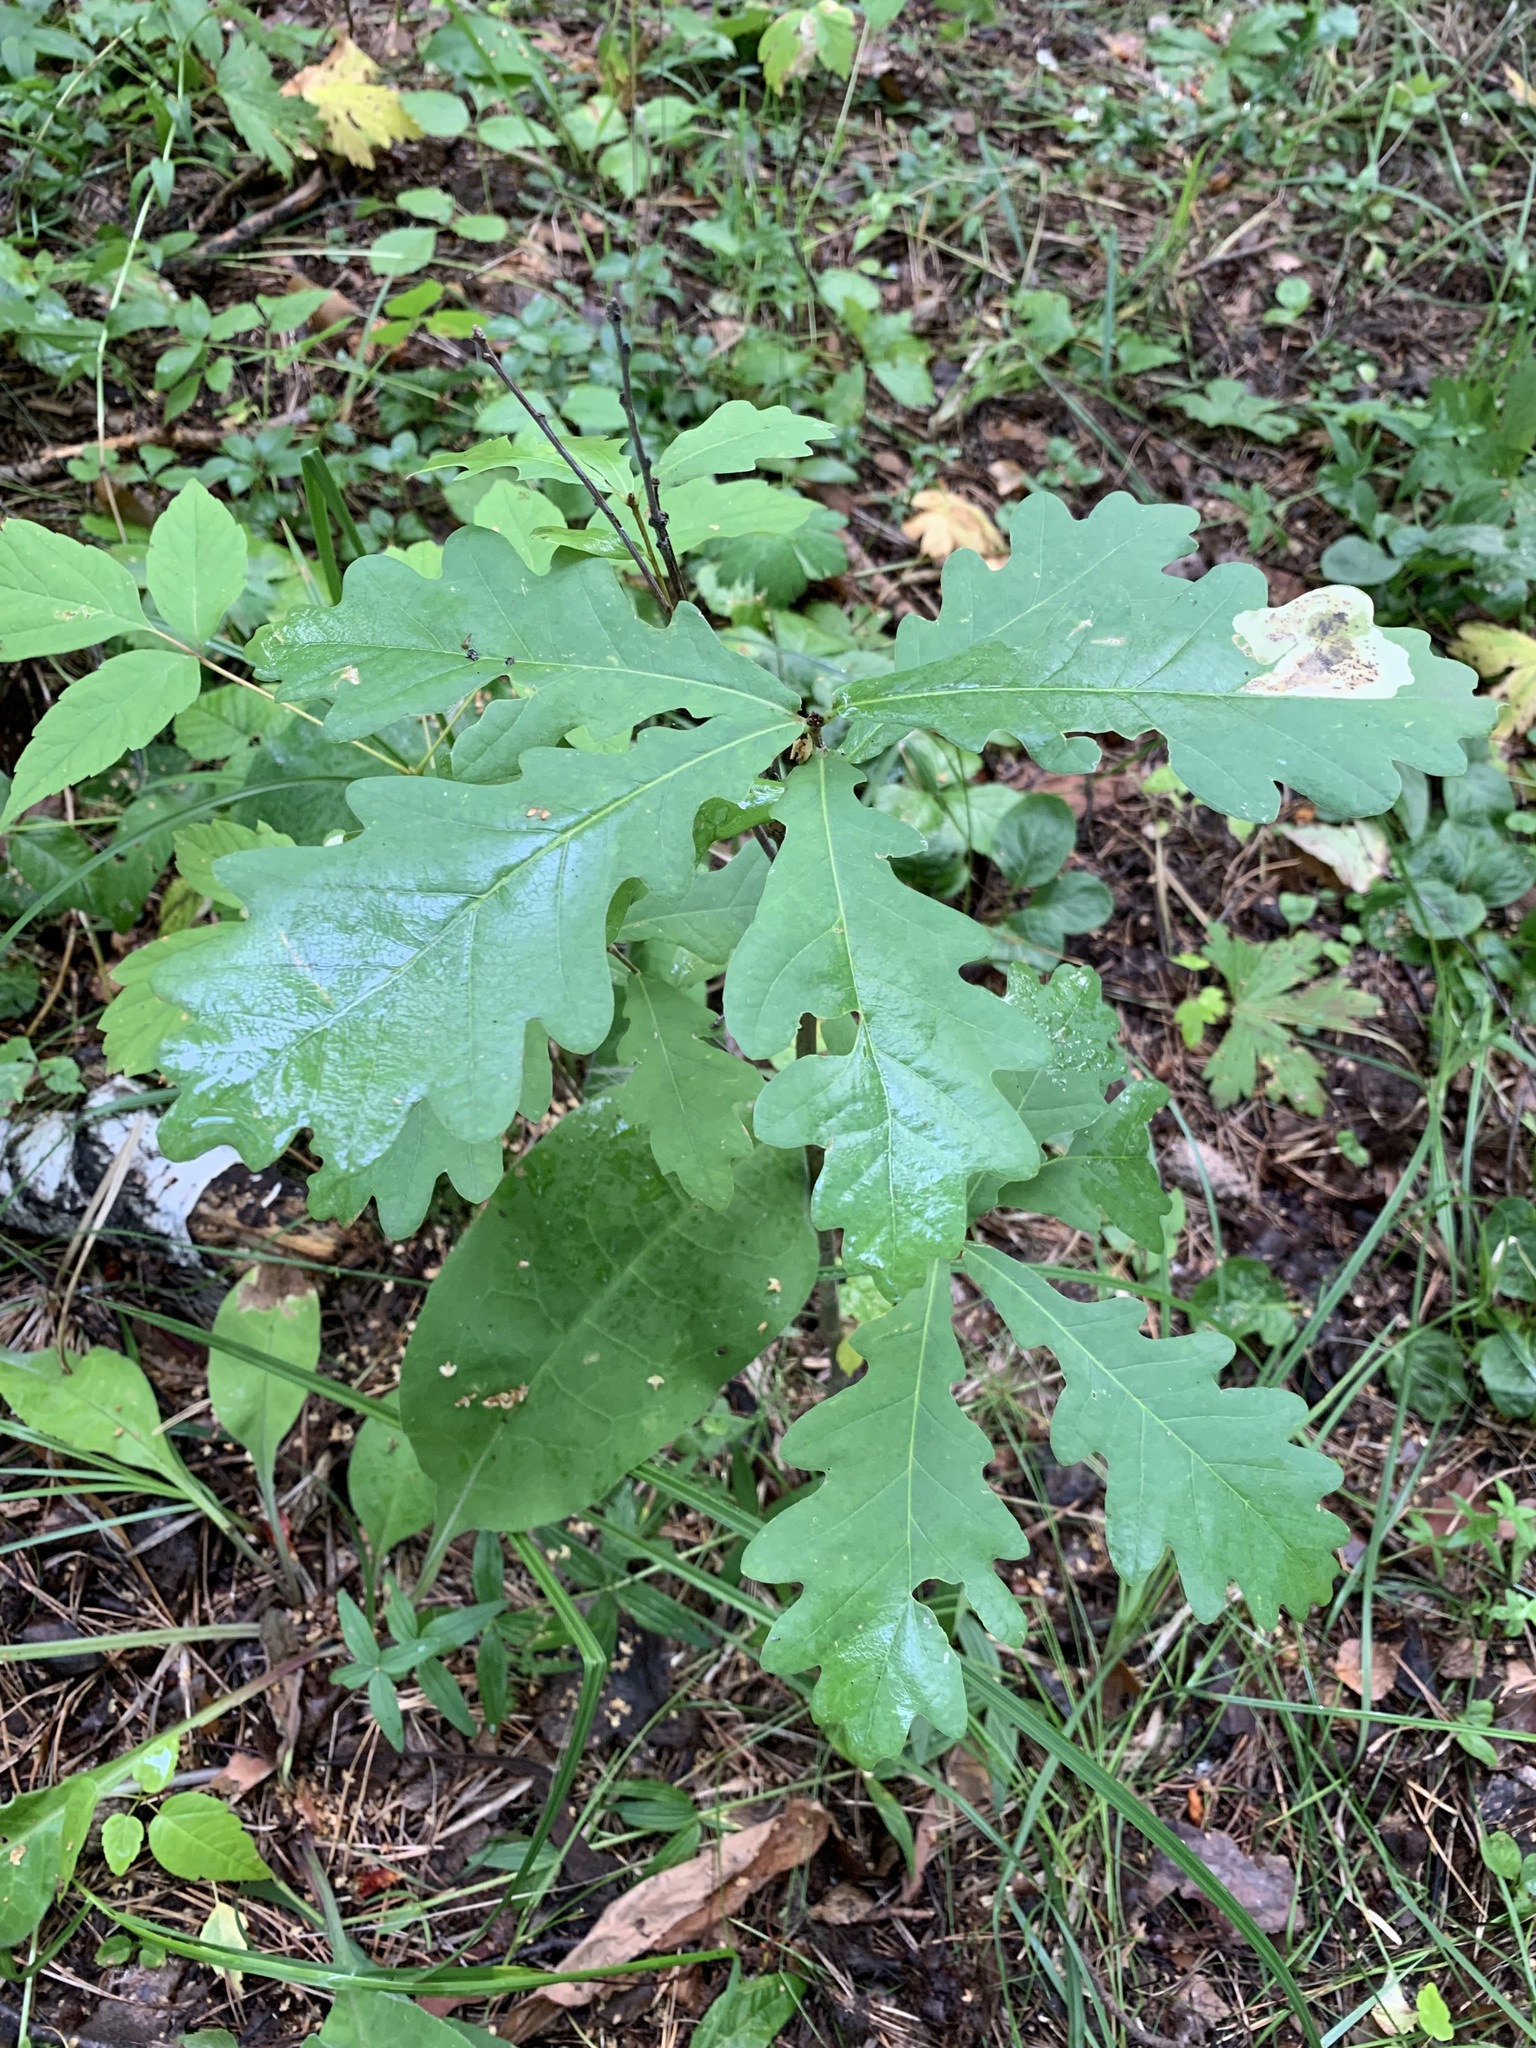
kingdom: Plantae
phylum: Tracheophyta
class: Magnoliopsida
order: Fagales
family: Fagaceae
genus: Quercus
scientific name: Quercus robur
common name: Pedunculate oak
